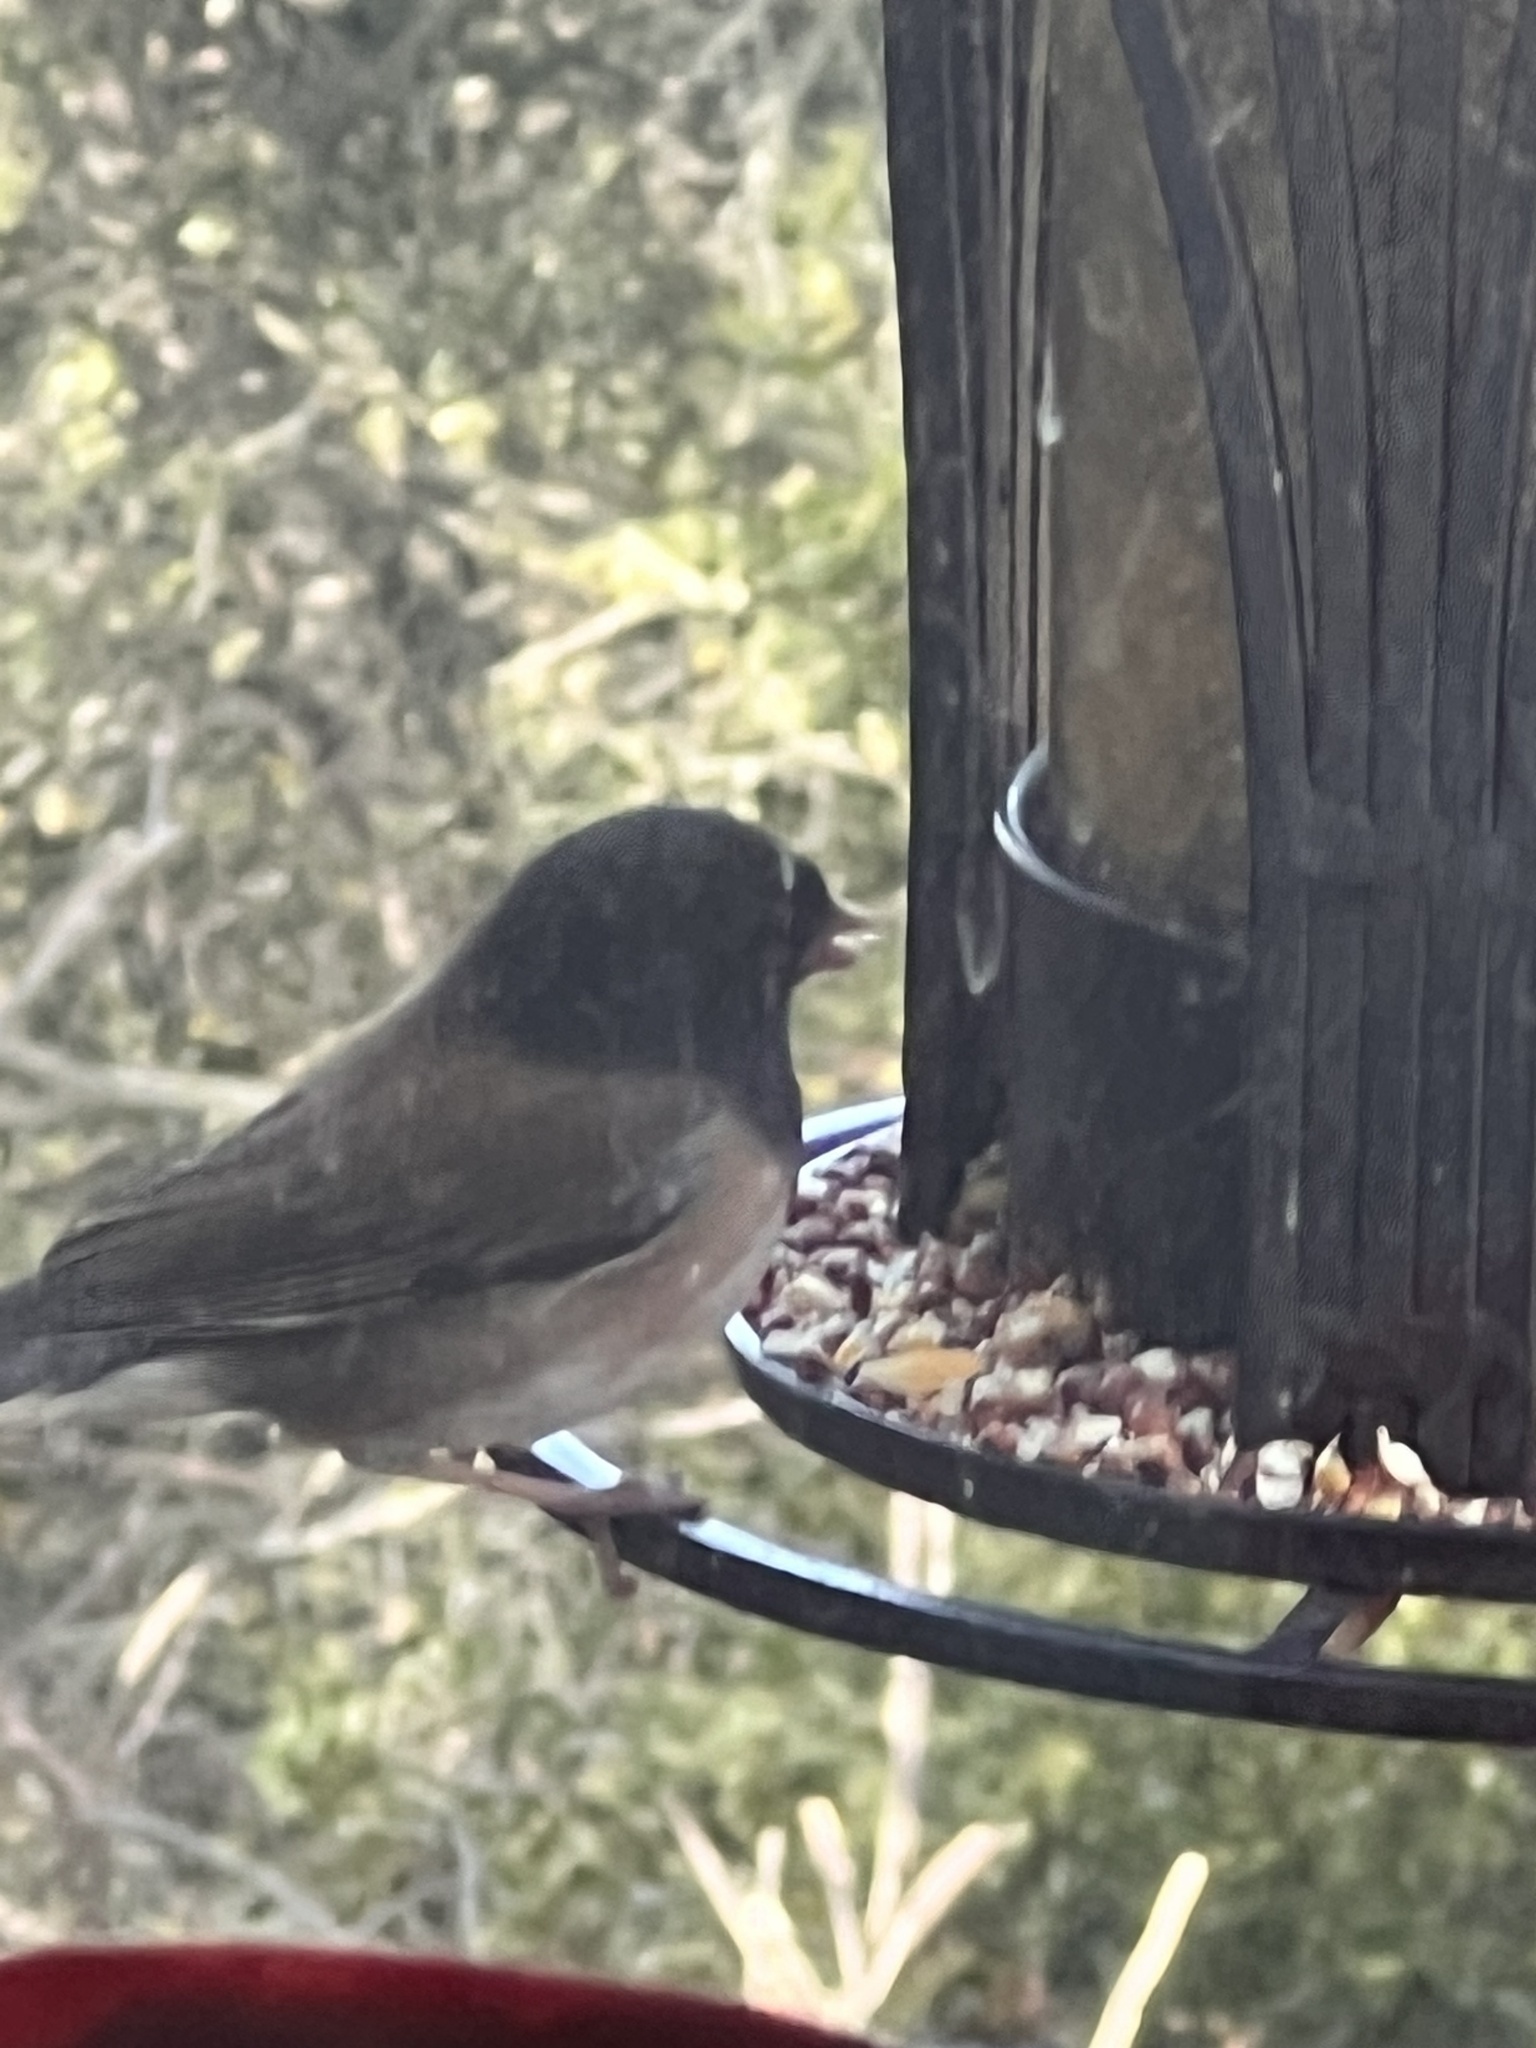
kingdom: Animalia
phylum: Chordata
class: Aves
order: Passeriformes
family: Passerellidae
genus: Junco
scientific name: Junco hyemalis
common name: Dark-eyed junco
